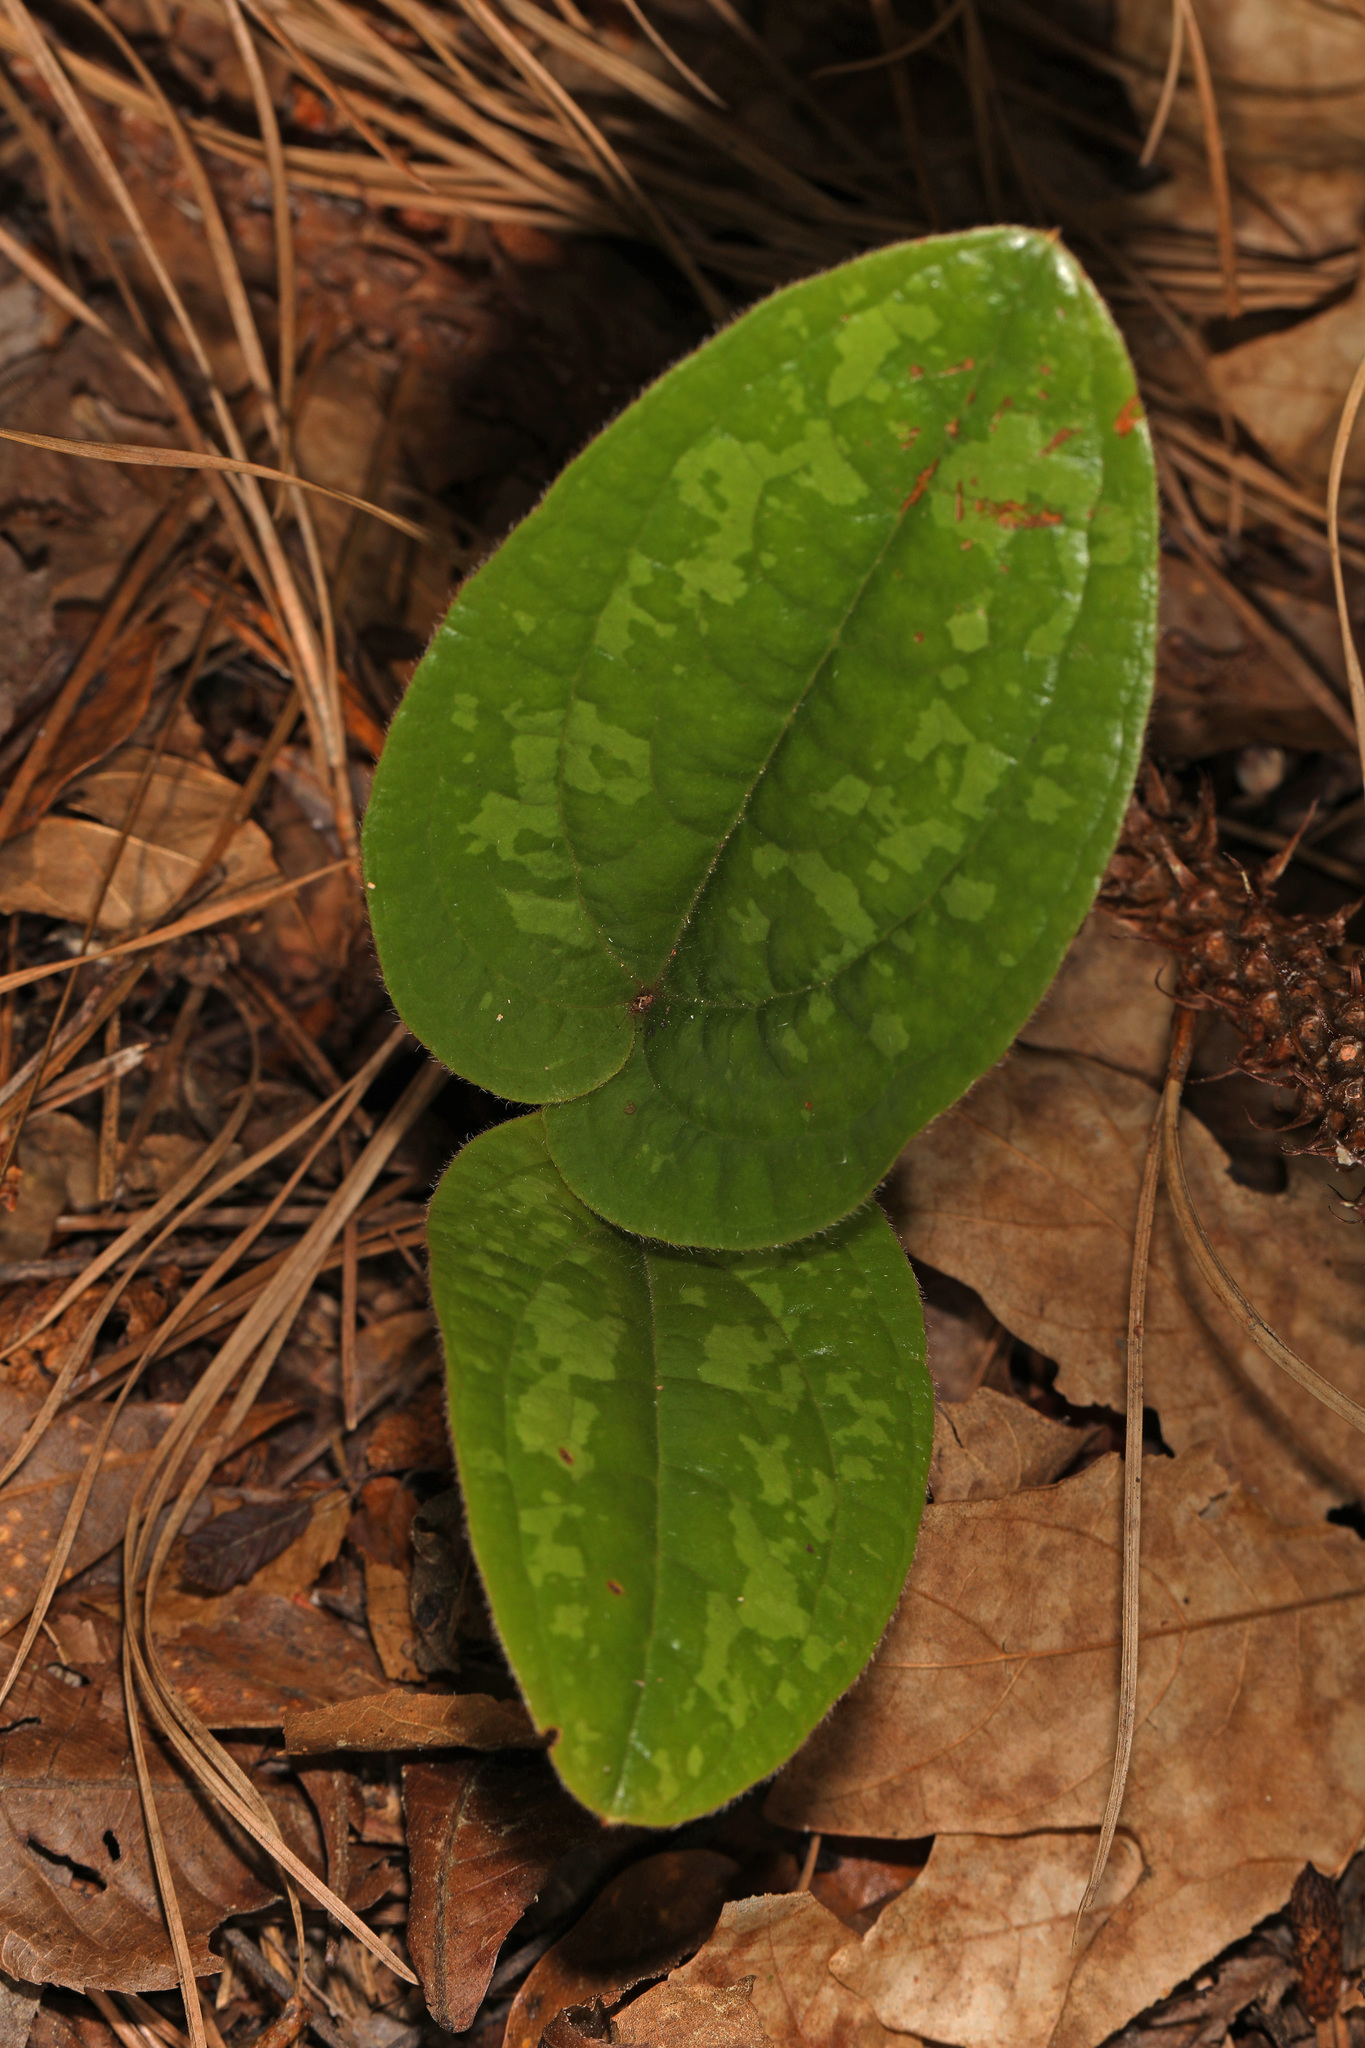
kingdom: Plantae
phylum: Tracheophyta
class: Liliopsida
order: Liliales
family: Smilacaceae
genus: Smilax
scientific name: Smilax pumila
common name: Sarsaparilla-vine
